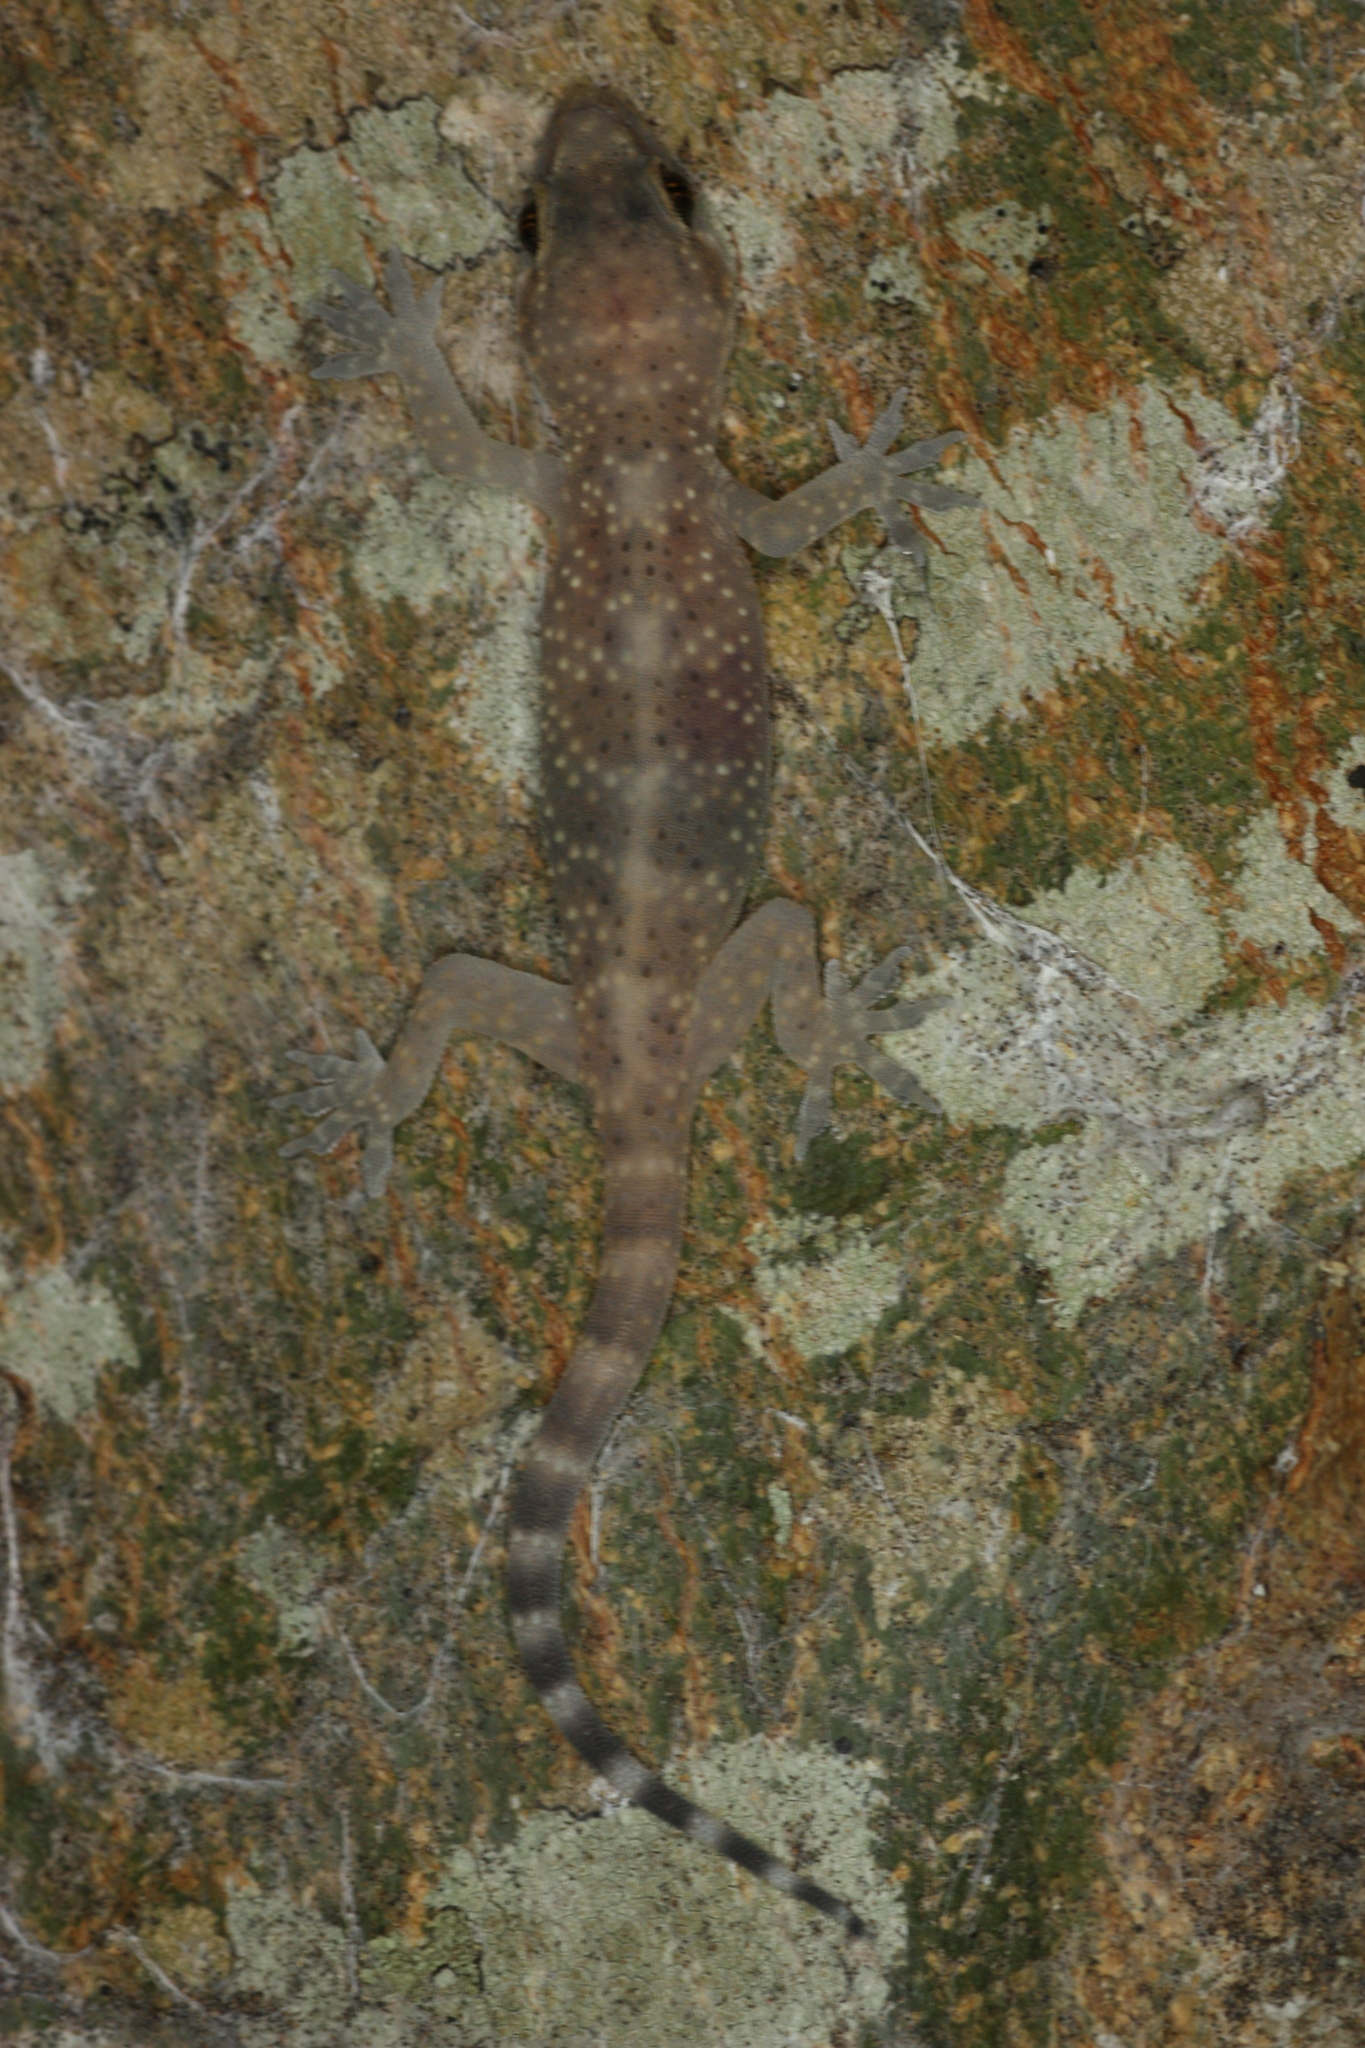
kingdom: Animalia
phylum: Chordata
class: Squamata
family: Gekkonidae
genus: Hemidactylus
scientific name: Hemidactylus turcicus
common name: Turkish gecko
